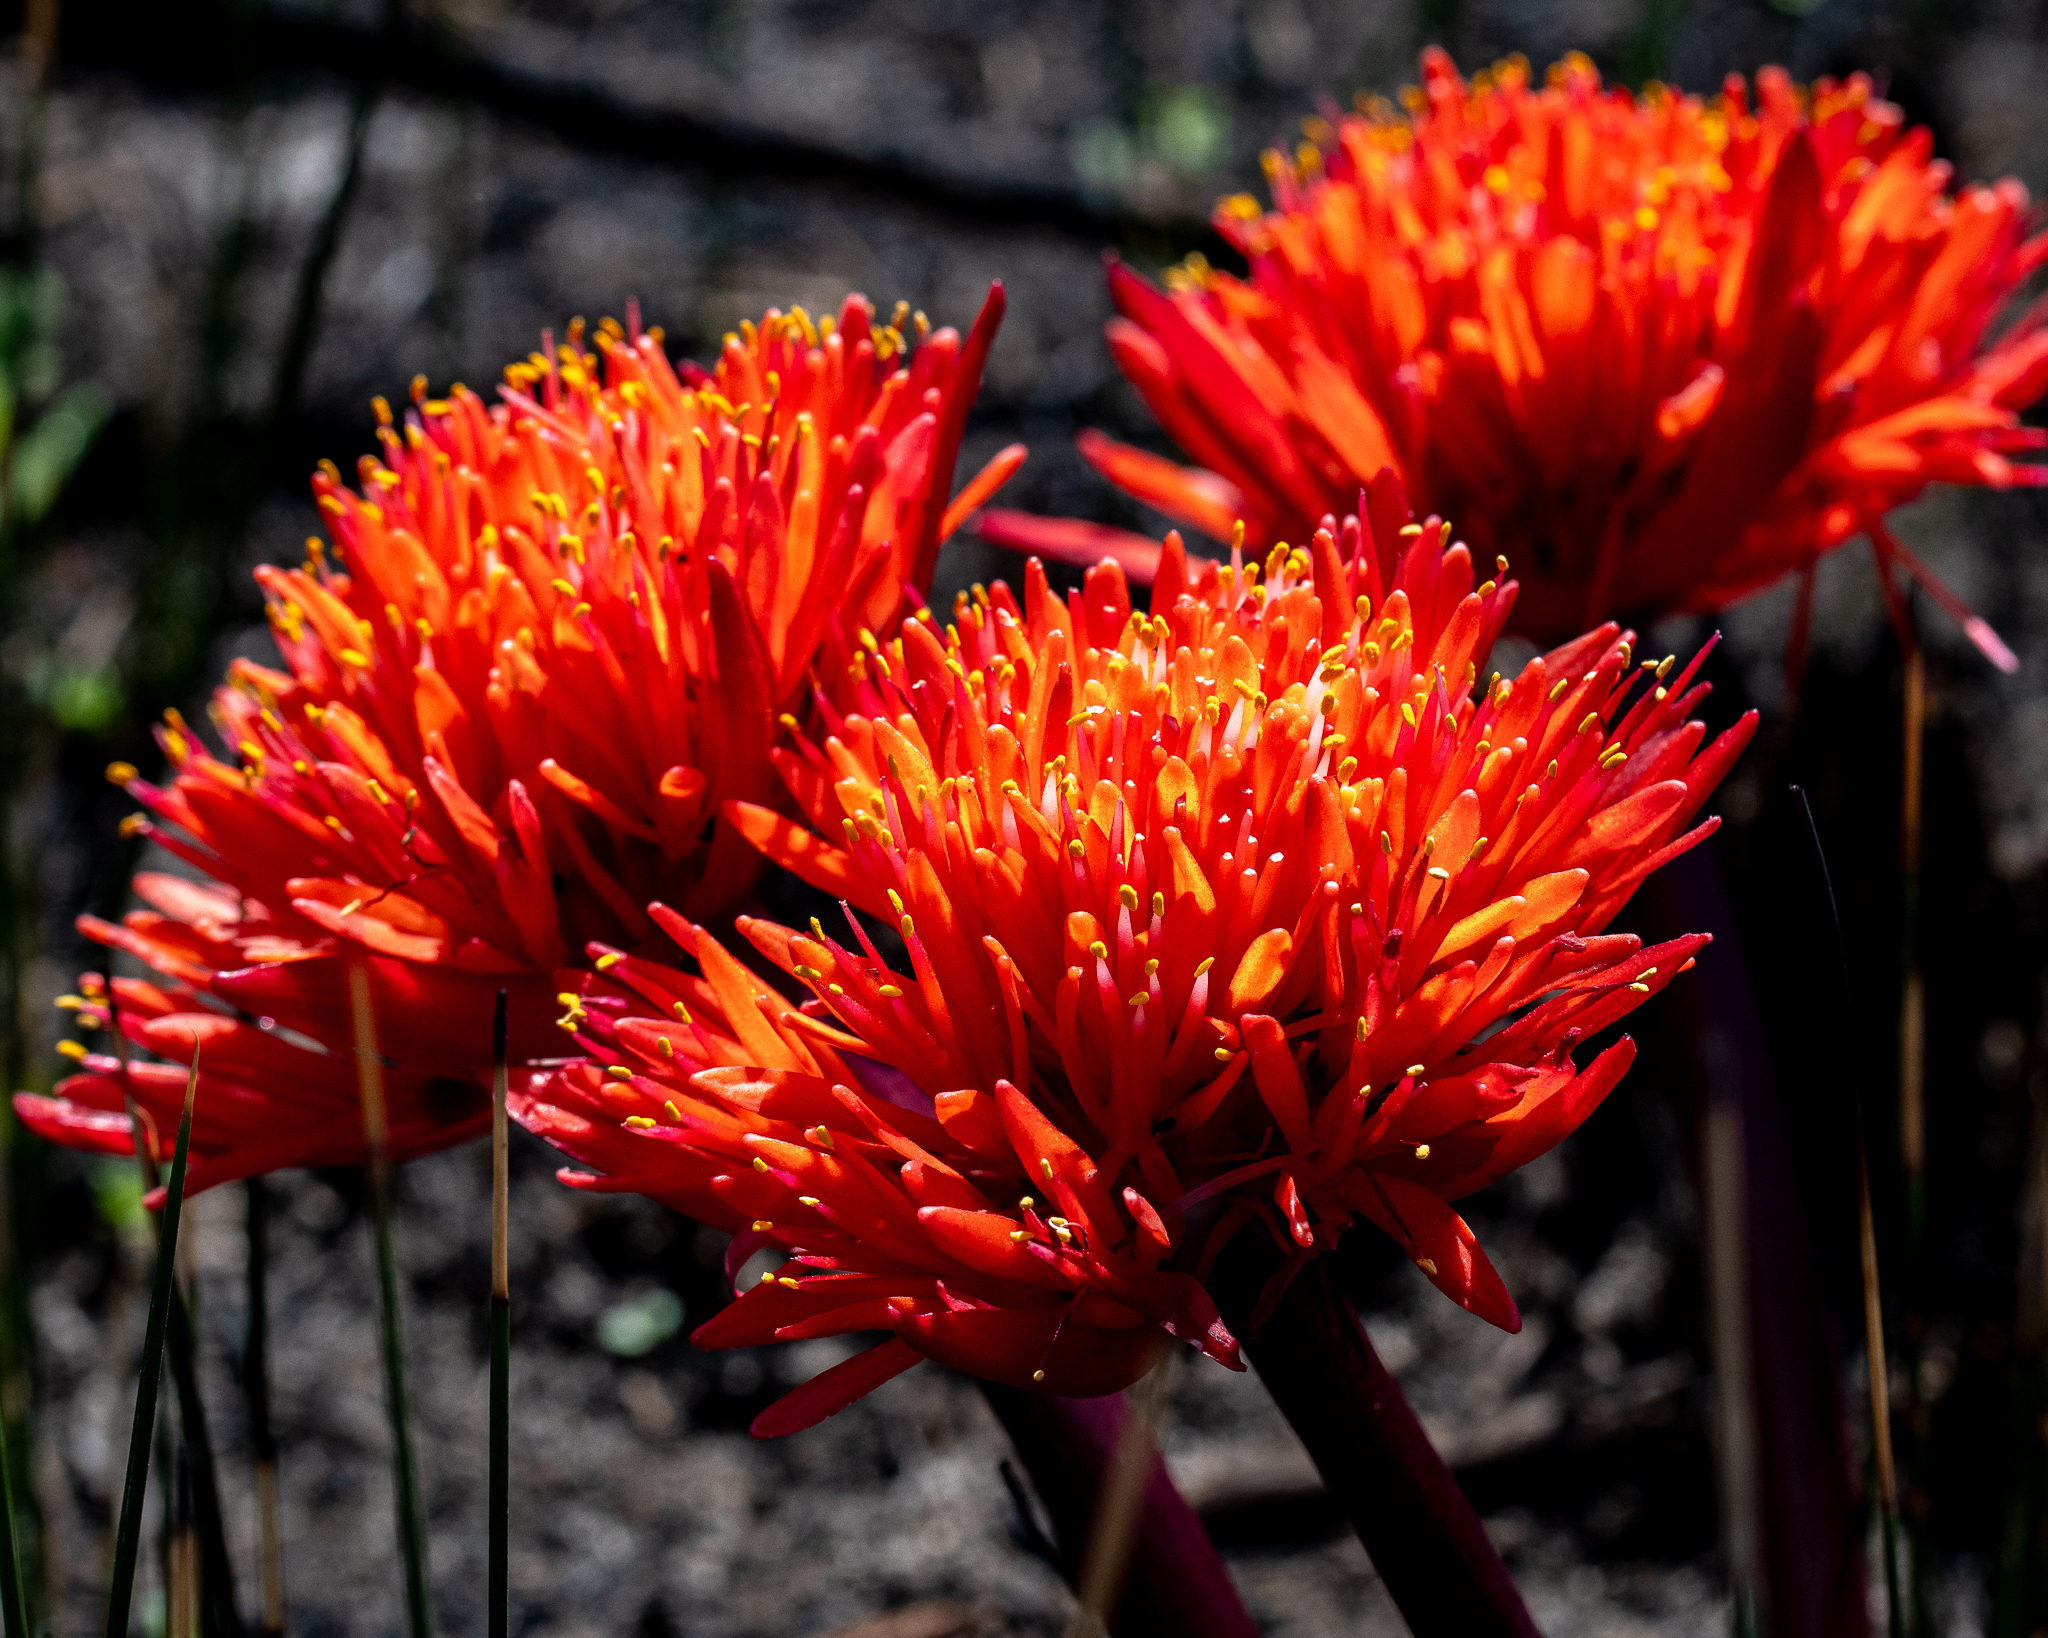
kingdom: Plantae
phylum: Tracheophyta
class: Liliopsida
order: Asparagales
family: Amaryllidaceae
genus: Haemanthus
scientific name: Haemanthus canaliculatus
